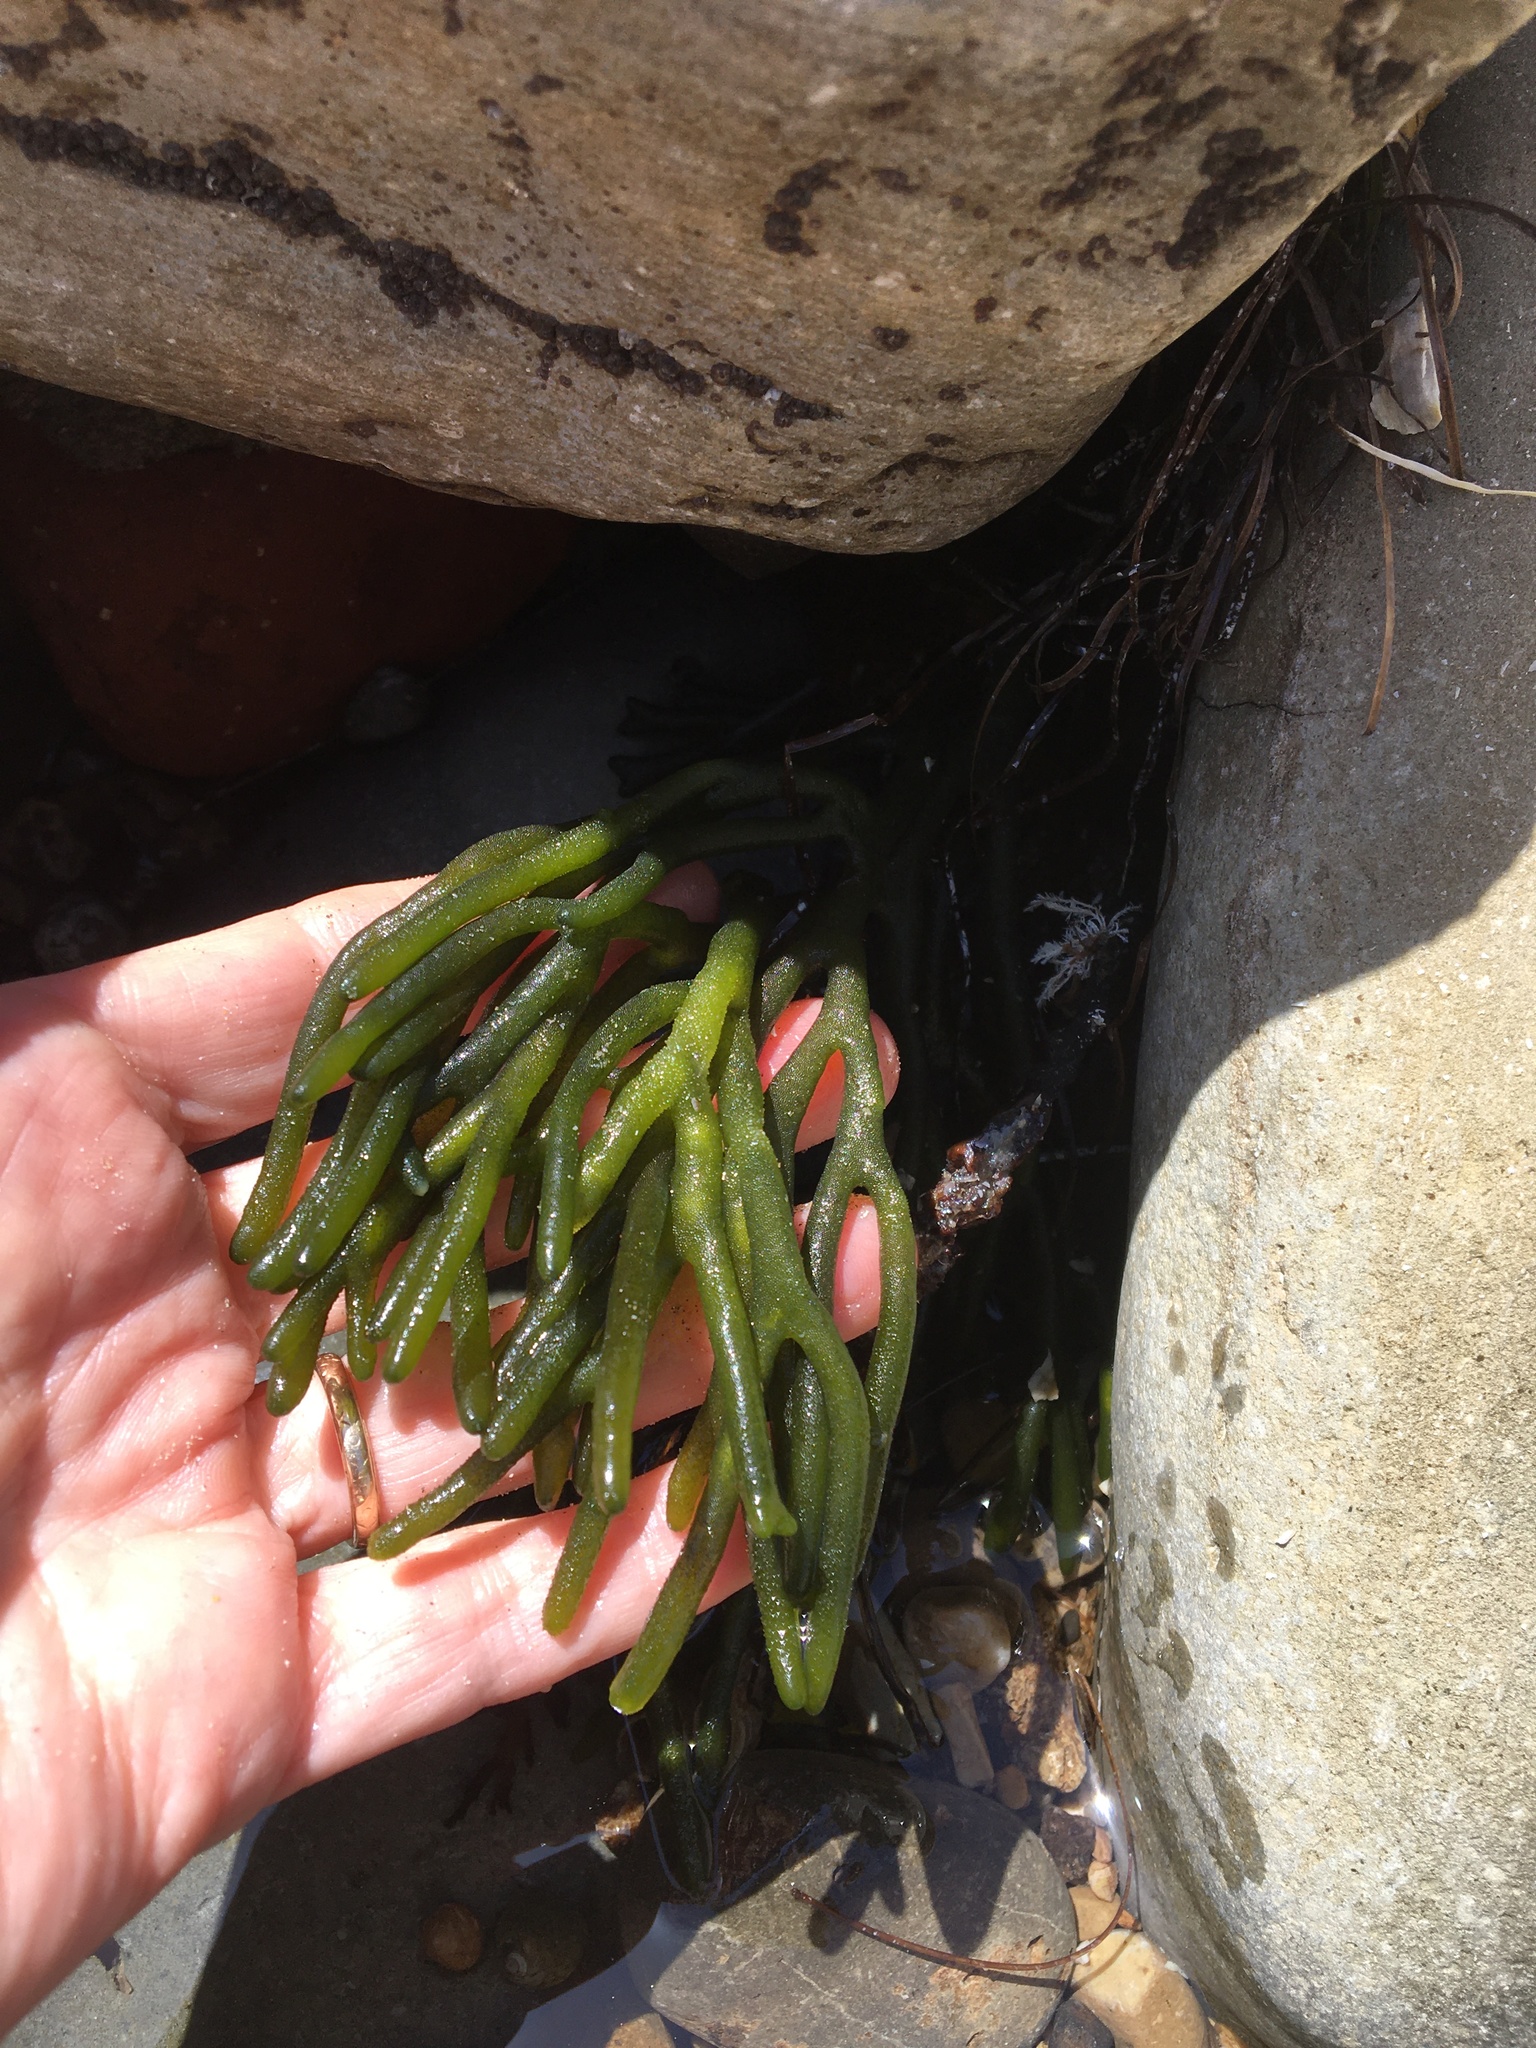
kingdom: Plantae
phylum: Chlorophyta
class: Ulvophyceae
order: Bryopsidales
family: Codiaceae
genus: Codium
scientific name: Codium fragile
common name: Dead man's fingers
